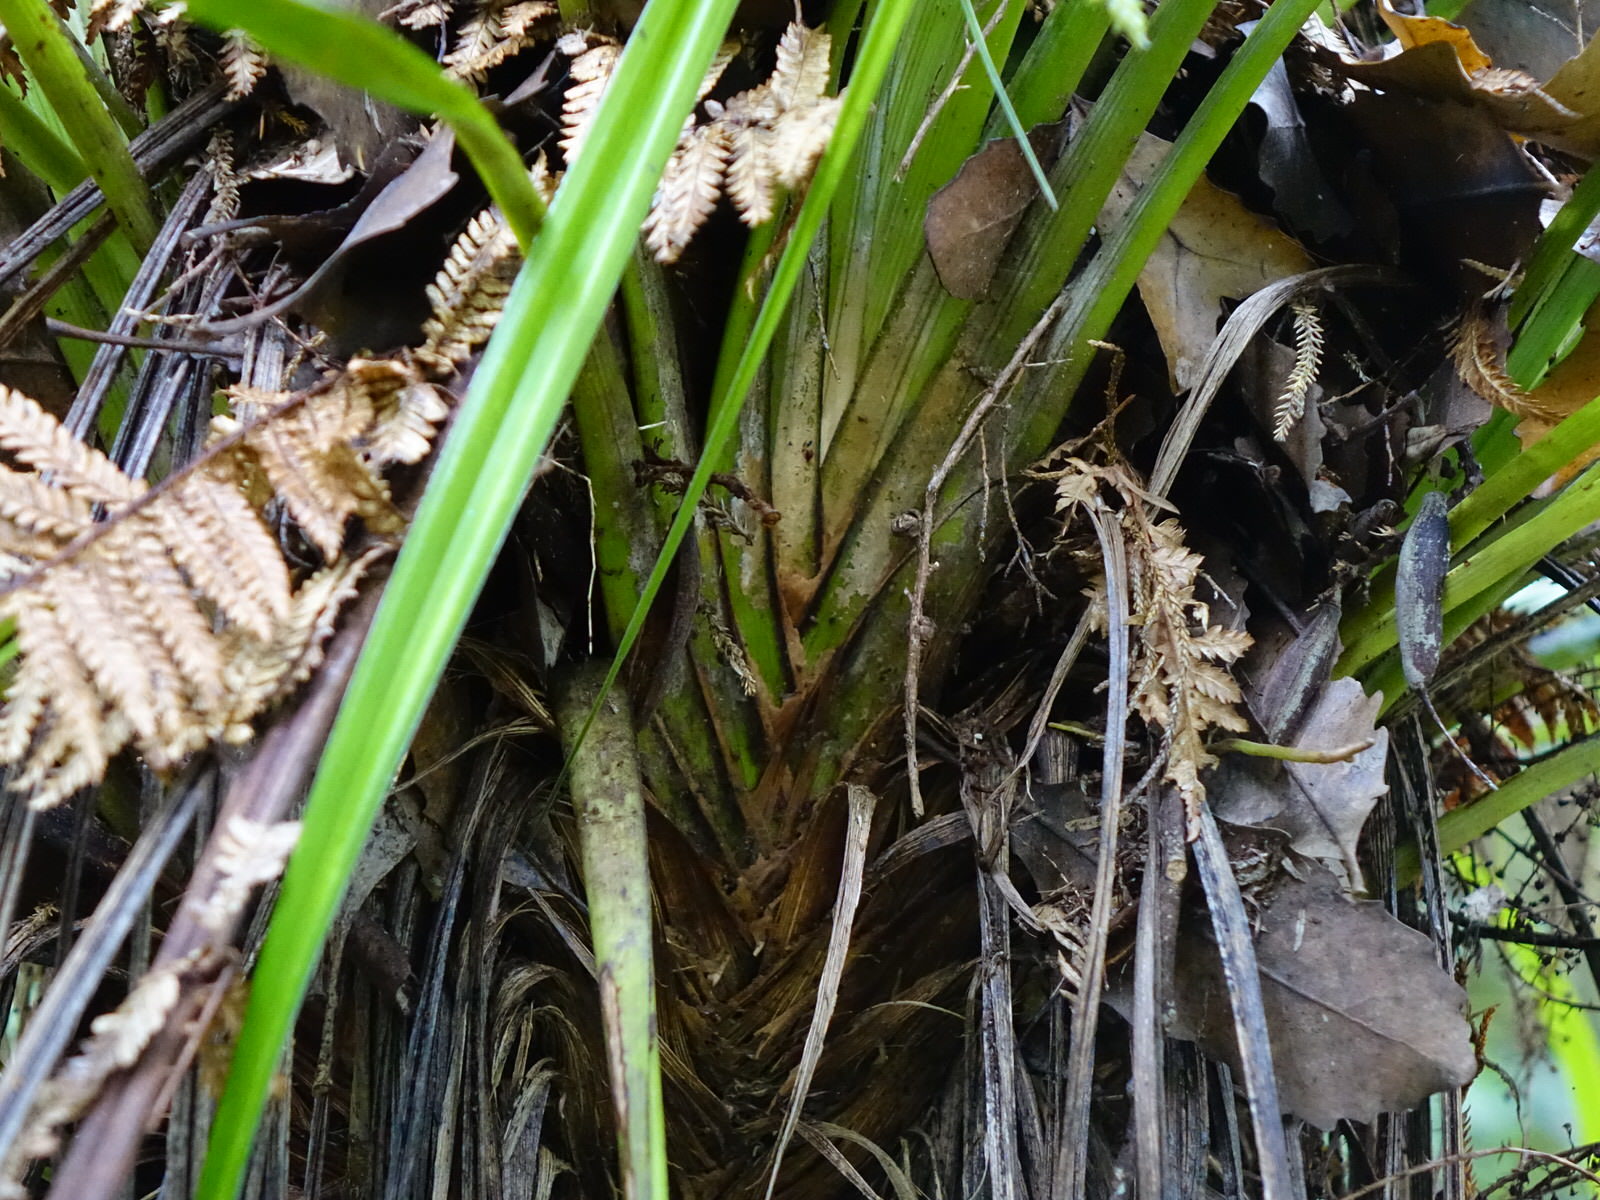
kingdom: Plantae
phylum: Tracheophyta
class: Liliopsida
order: Asparagales
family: Asteliaceae
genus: Astelia
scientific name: Astelia solandri
